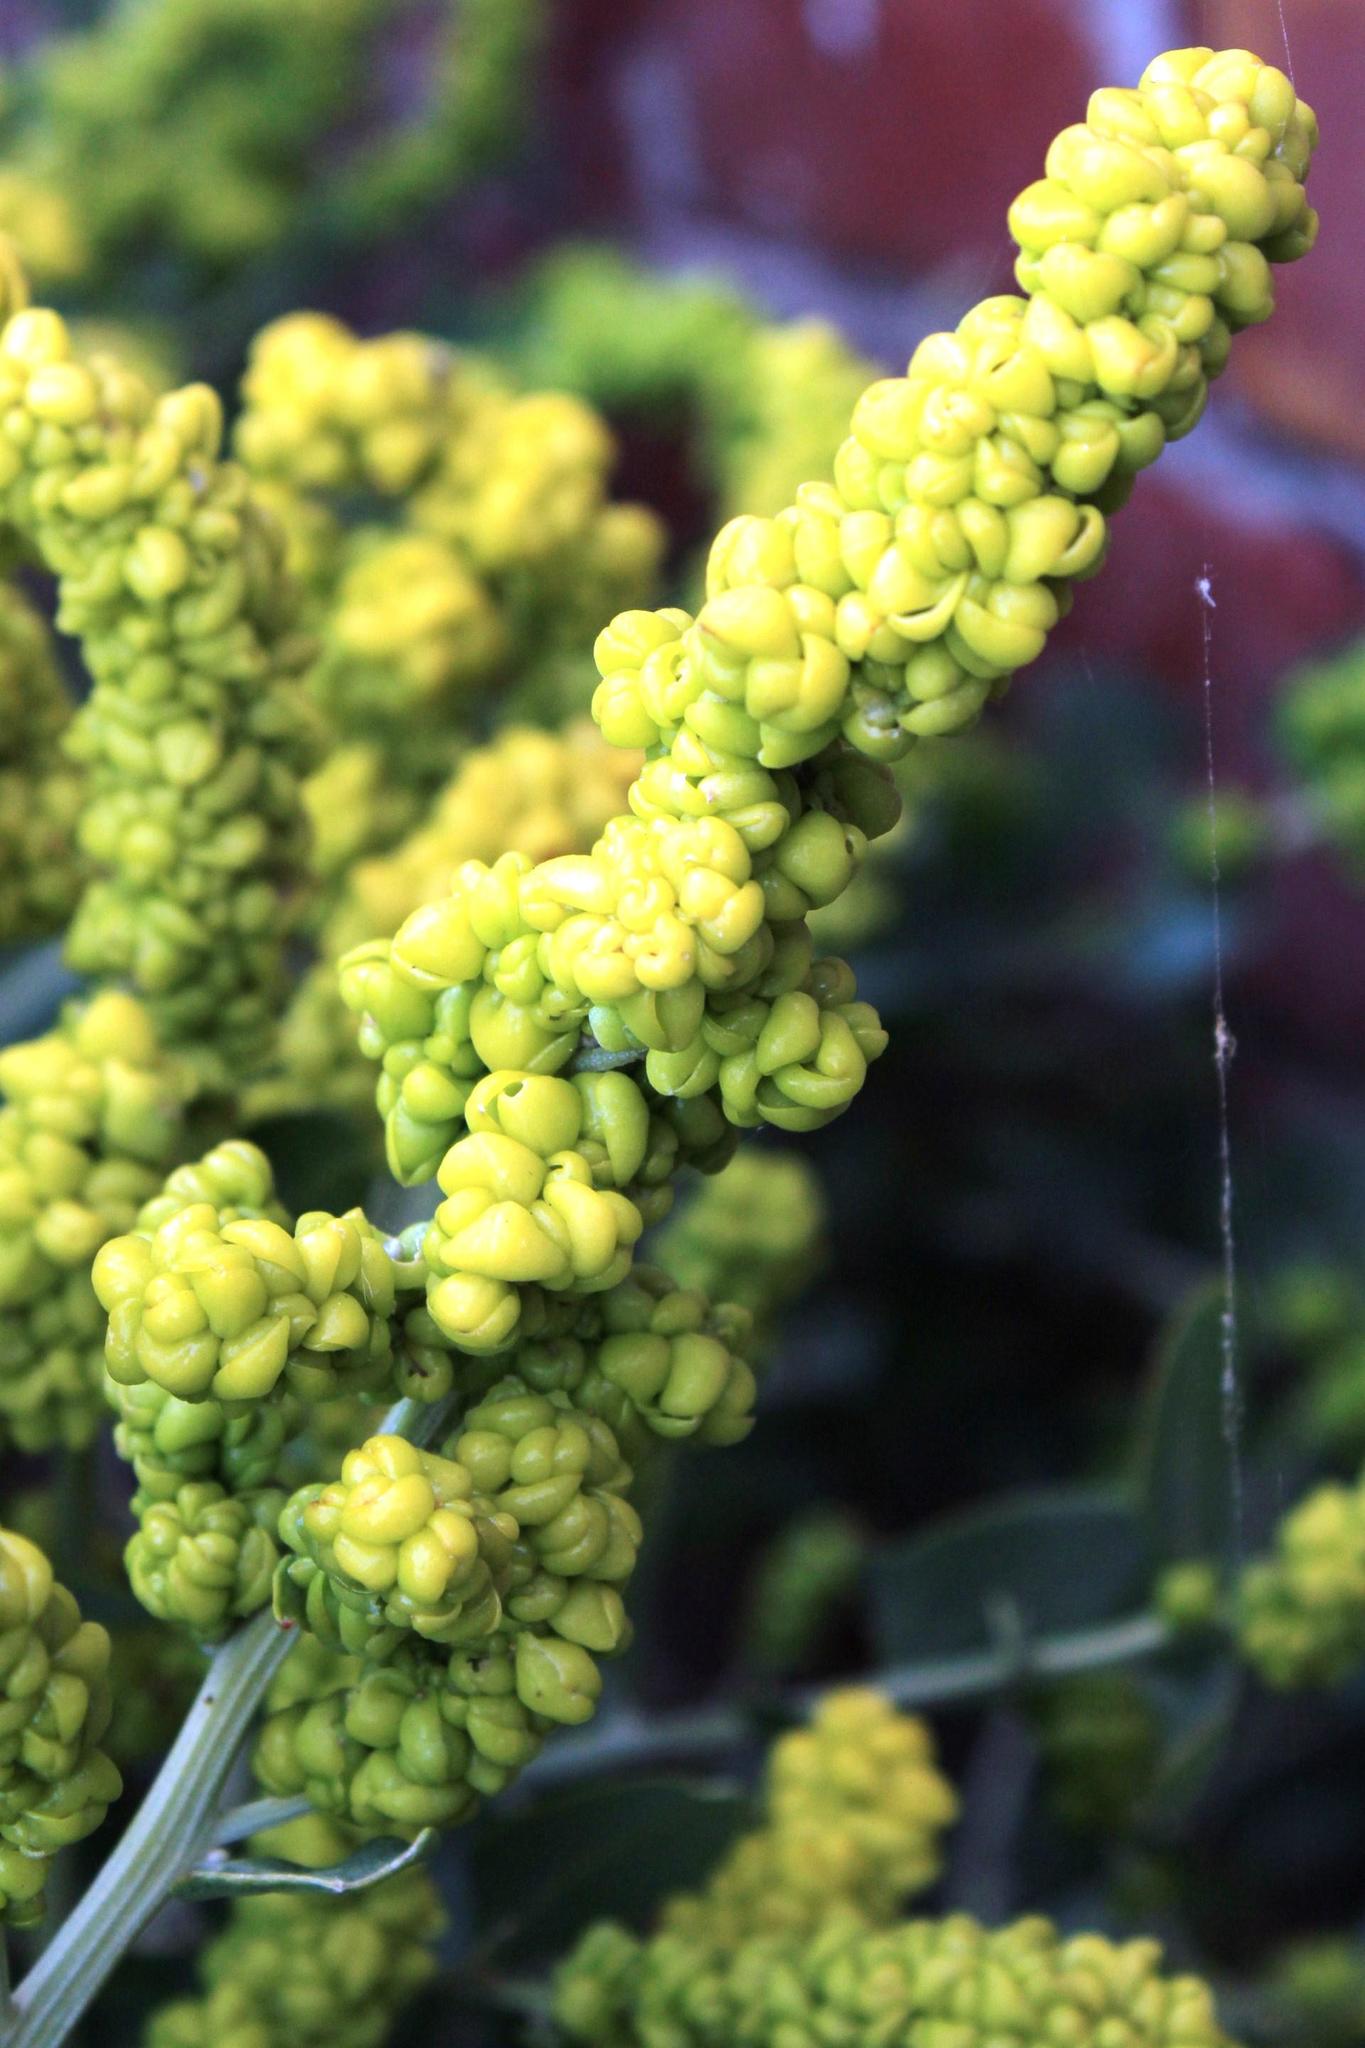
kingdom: Plantae
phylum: Tracheophyta
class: Magnoliopsida
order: Caryophyllales
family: Amaranthaceae
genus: Exomis
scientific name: Exomis albicans
